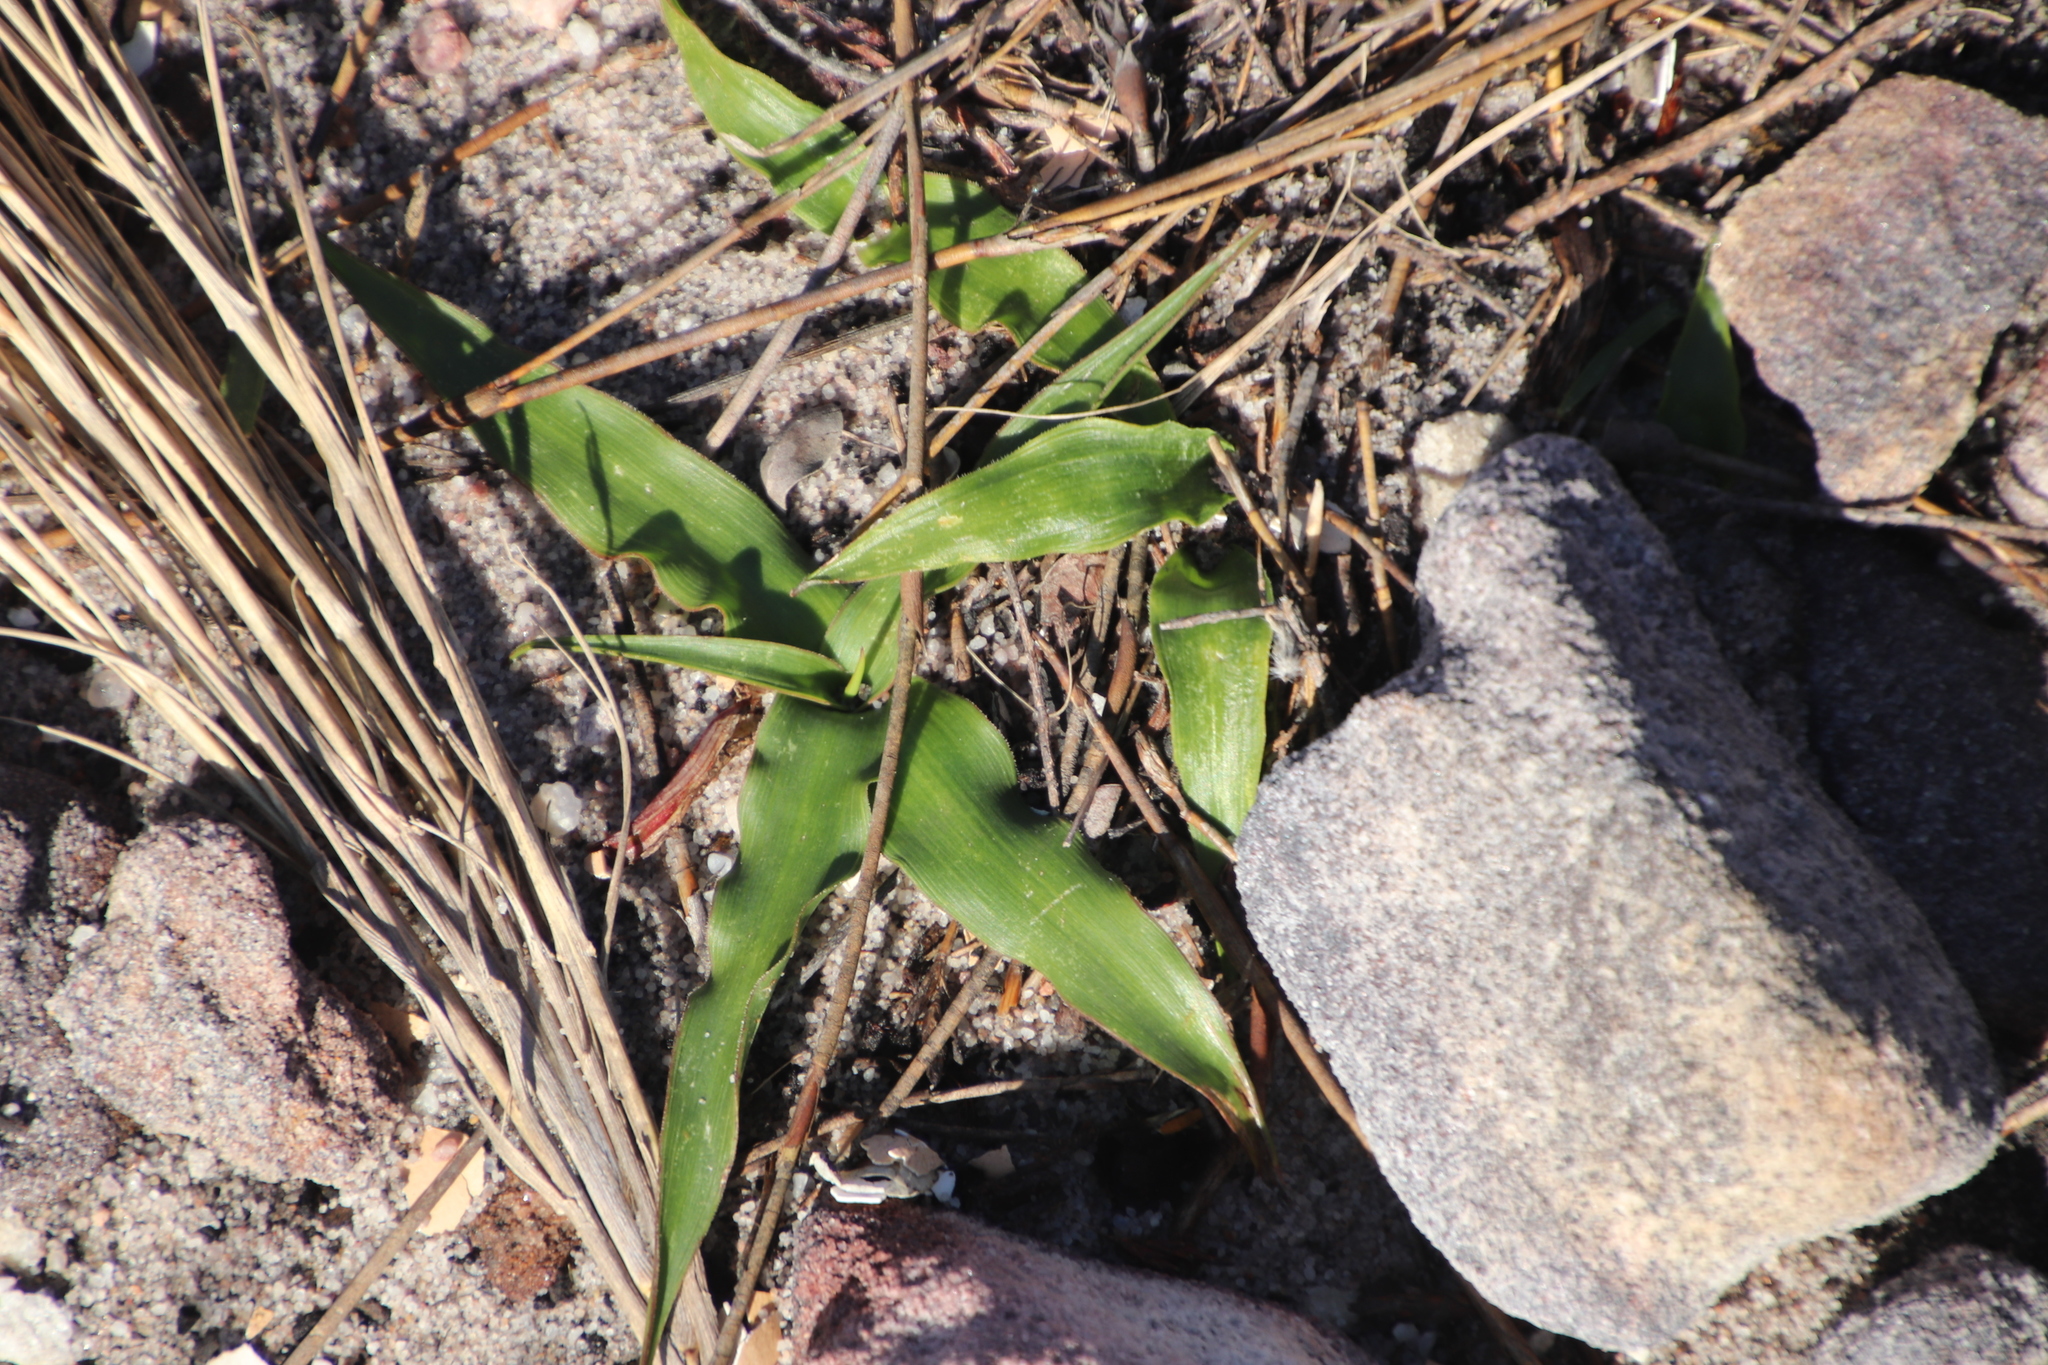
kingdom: Plantae
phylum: Tracheophyta
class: Liliopsida
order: Asparagales
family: Tecophilaeaceae
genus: Cyanella
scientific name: Cyanella hyacinthoides
